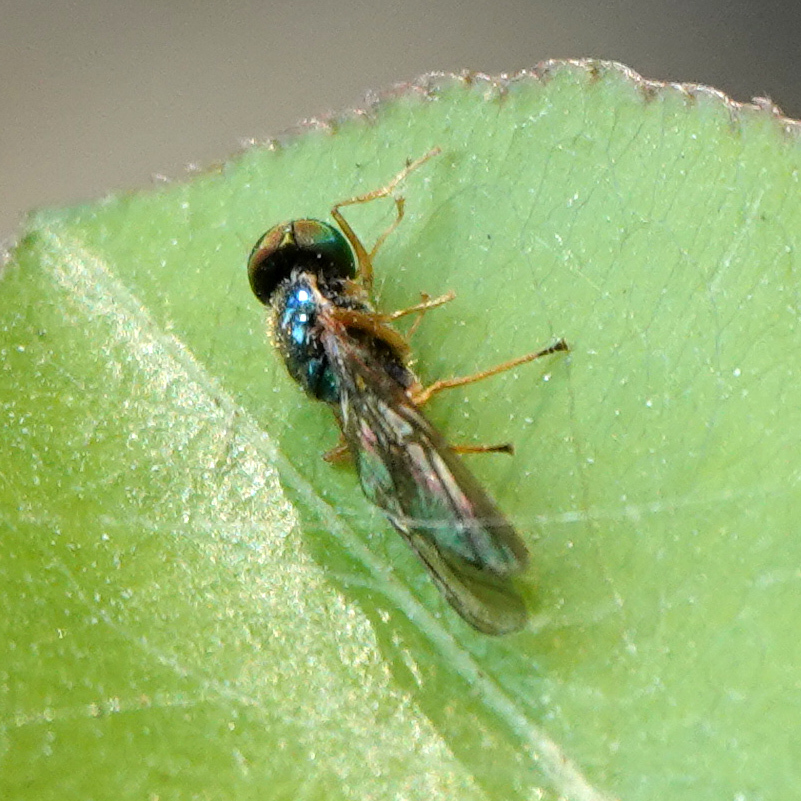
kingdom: Animalia
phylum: Arthropoda
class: Insecta
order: Diptera
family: Stratiomyidae
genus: Sargus
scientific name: Sargus fasciatus
